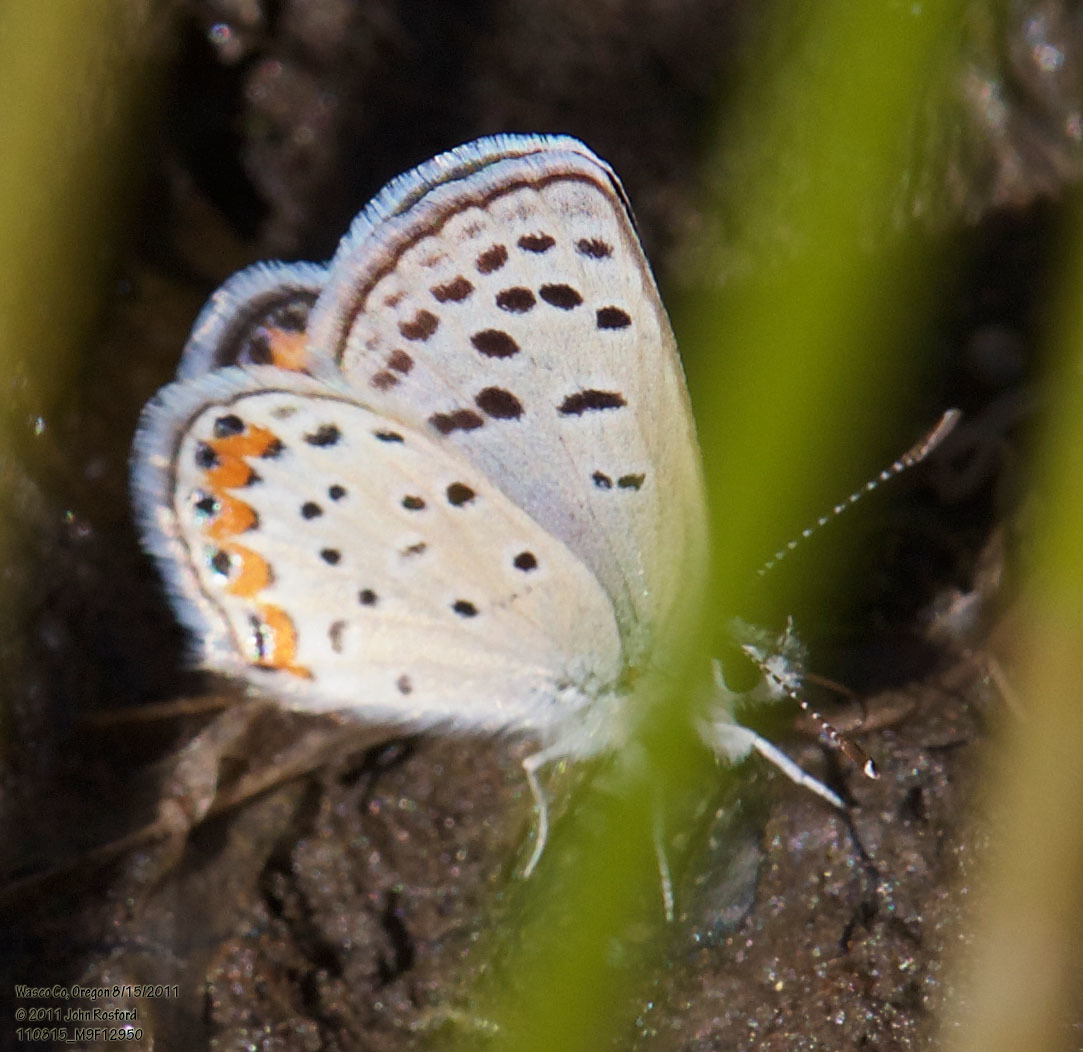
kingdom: Animalia
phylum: Arthropoda
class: Insecta
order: Lepidoptera
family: Lycaenidae
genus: Icaricia
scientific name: Icaricia acmon
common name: Acmon blue
